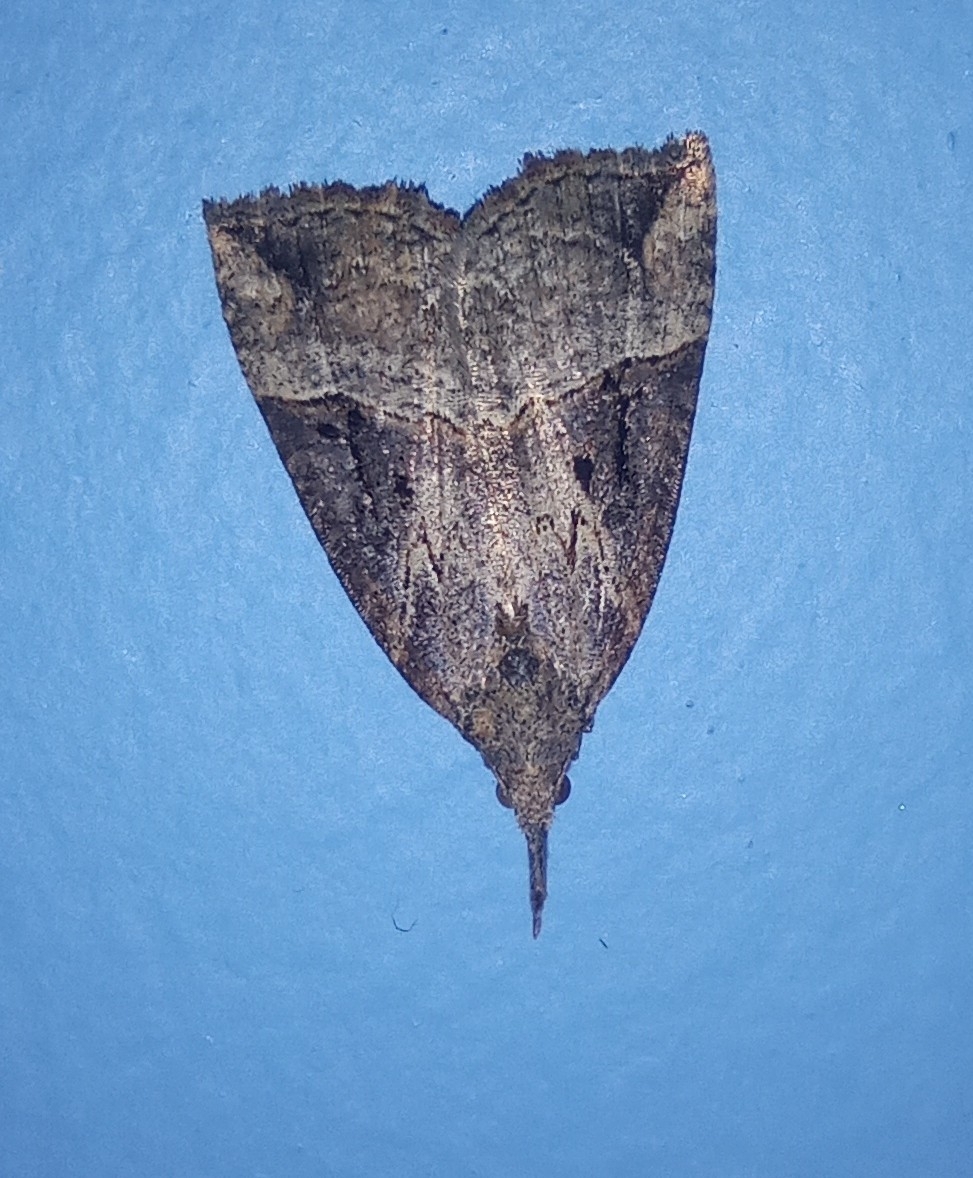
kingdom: Animalia
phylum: Arthropoda
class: Insecta
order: Lepidoptera
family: Erebidae
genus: Hypena
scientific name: Hypena rostralis
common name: Buttoned snout
